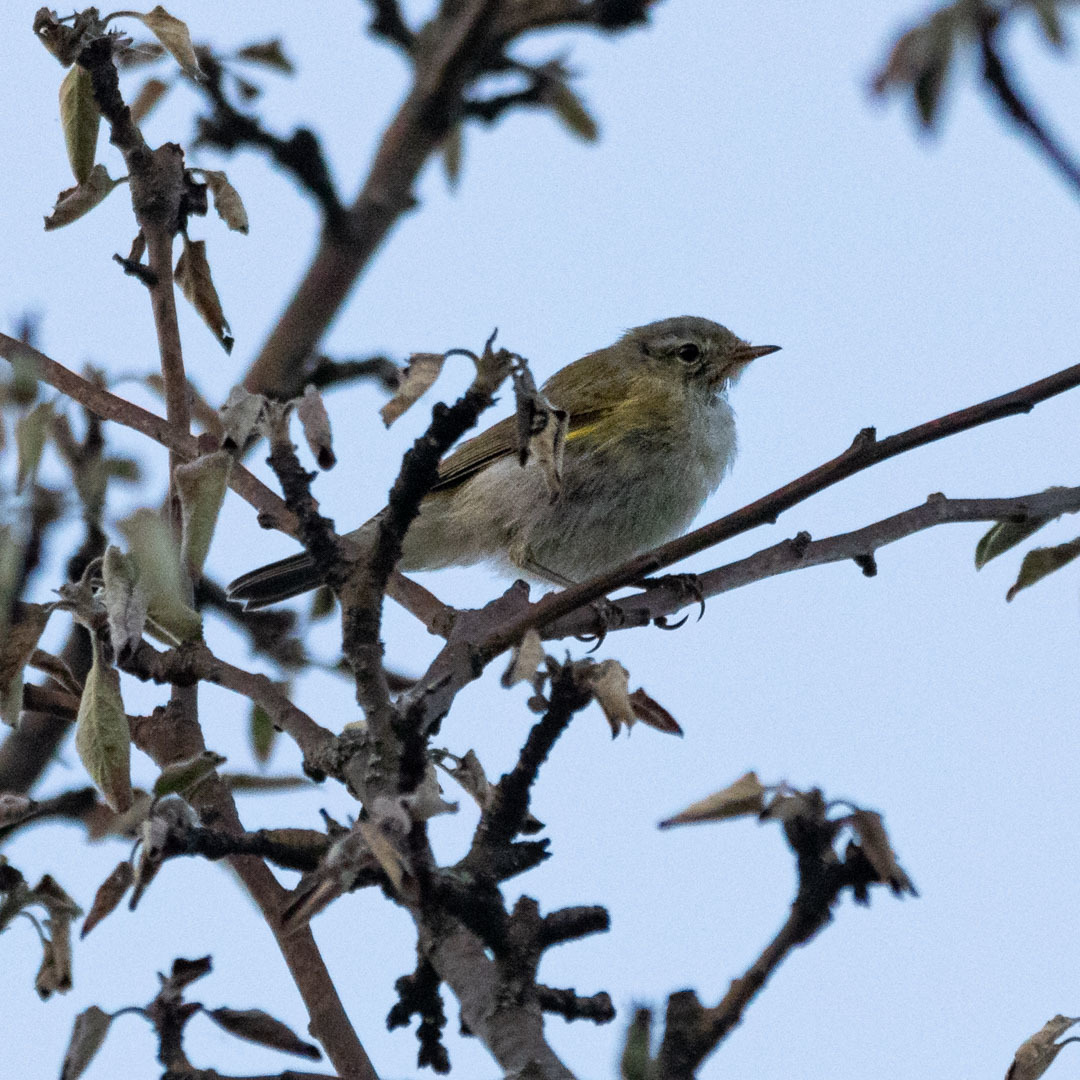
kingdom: Animalia
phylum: Chordata
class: Aves
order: Passeriformes
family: Phylloscopidae
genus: Phylloscopus
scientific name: Phylloscopus collybita
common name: Common chiffchaff
